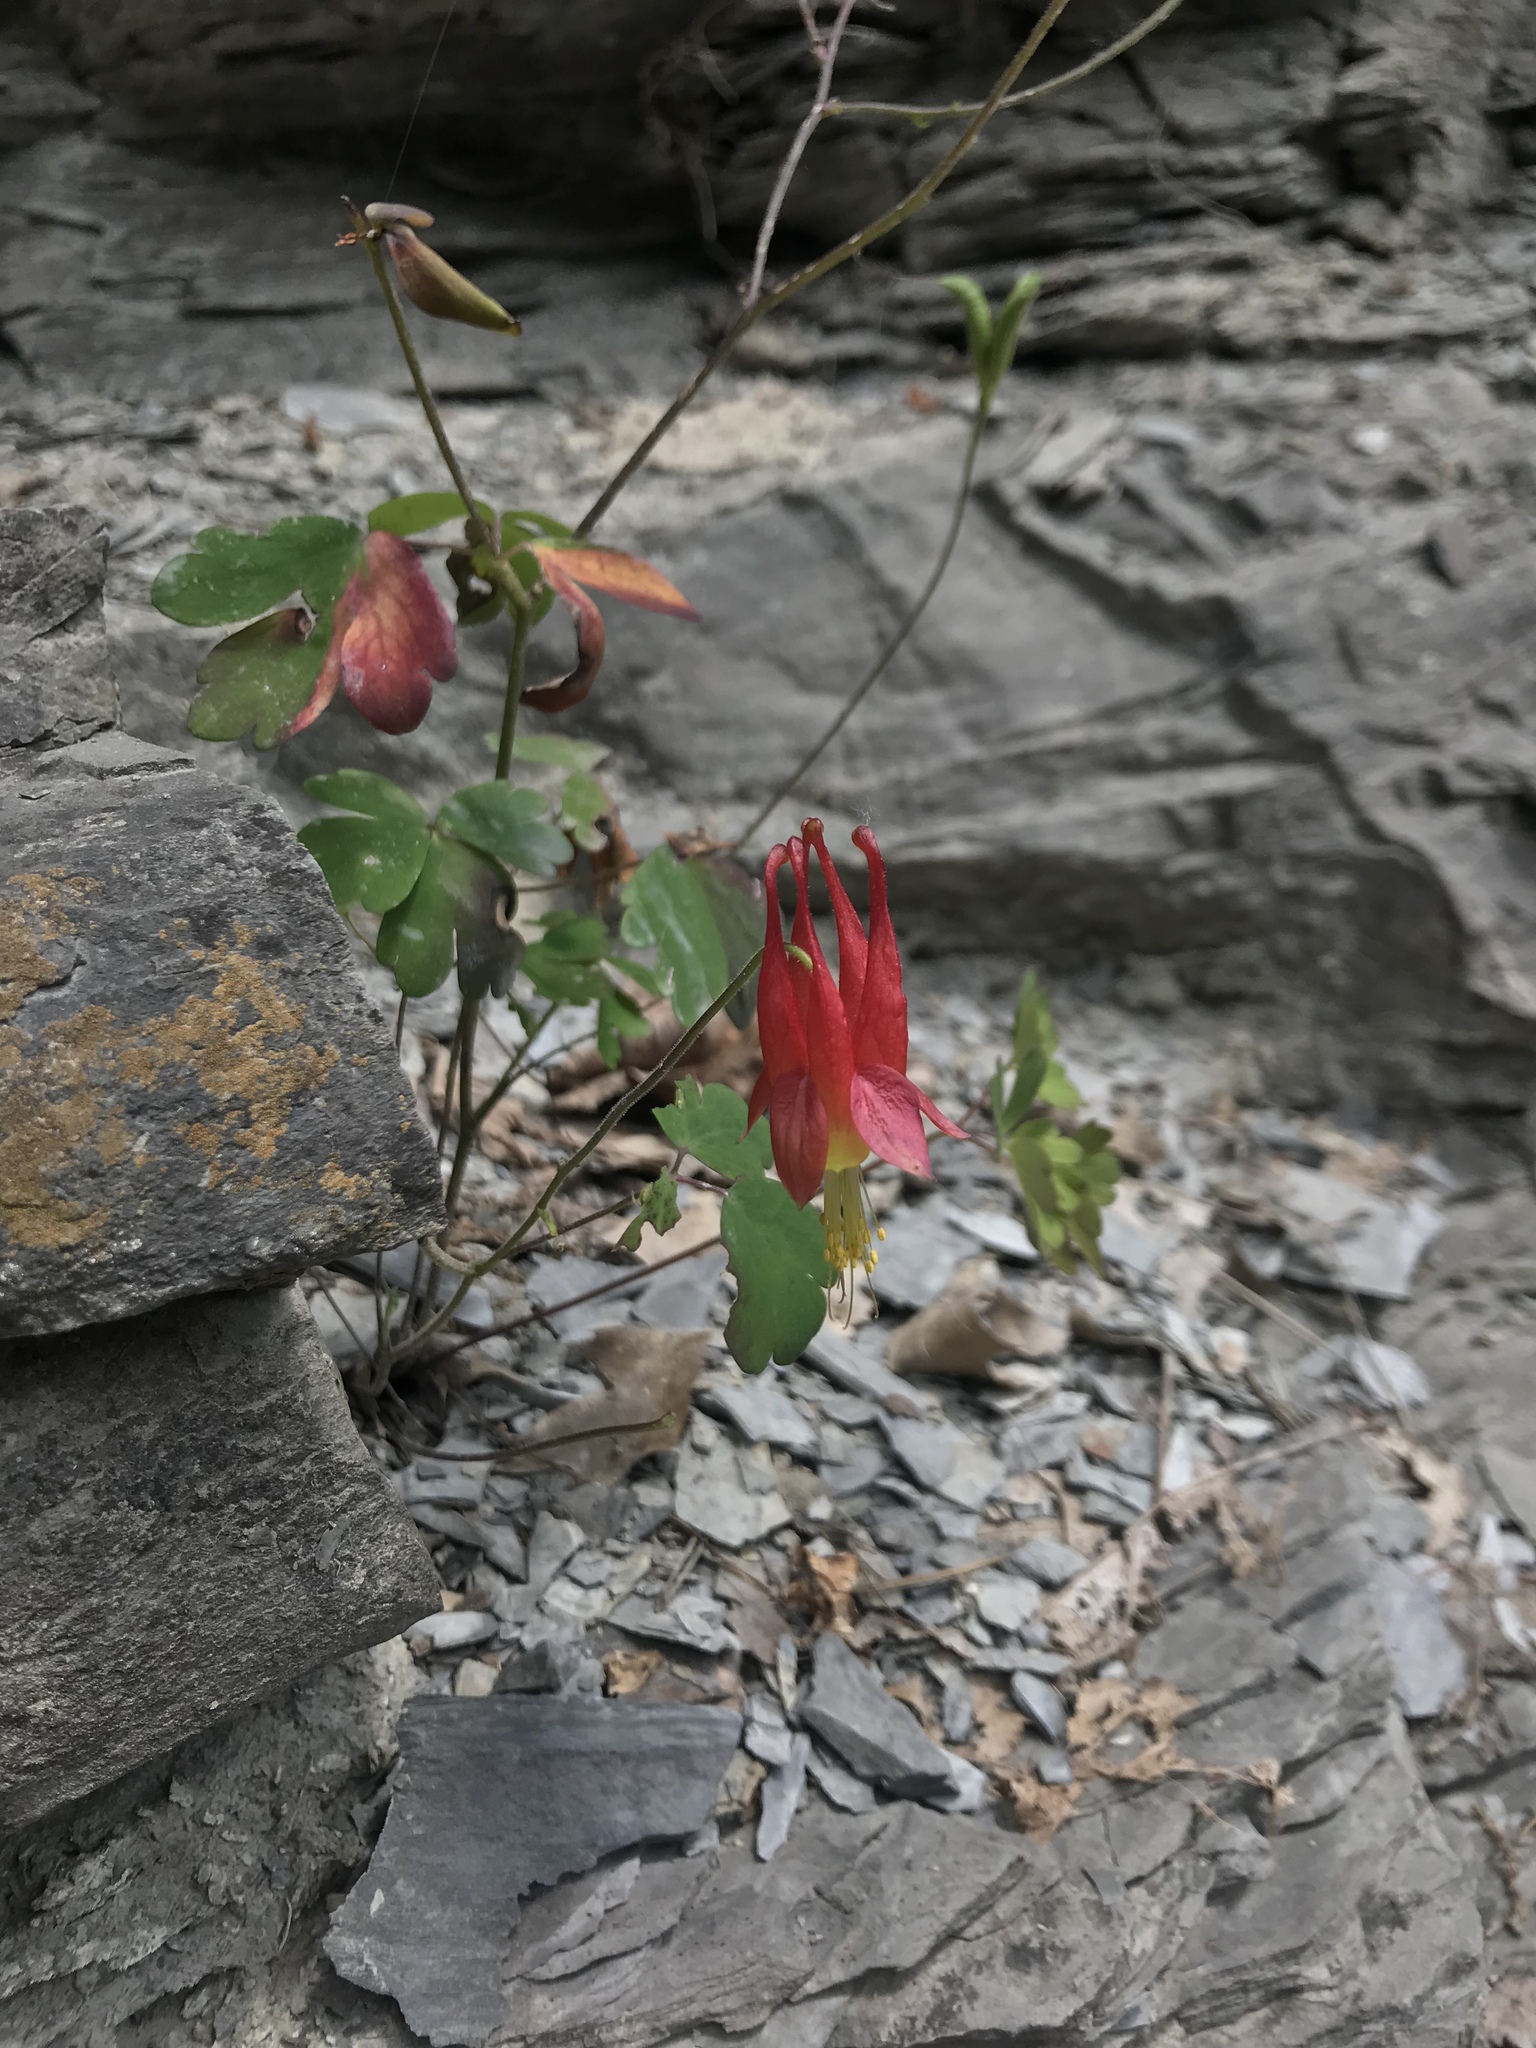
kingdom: Plantae
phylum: Tracheophyta
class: Magnoliopsida
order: Ranunculales
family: Ranunculaceae
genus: Aquilegia
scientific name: Aquilegia canadensis
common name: American columbine
